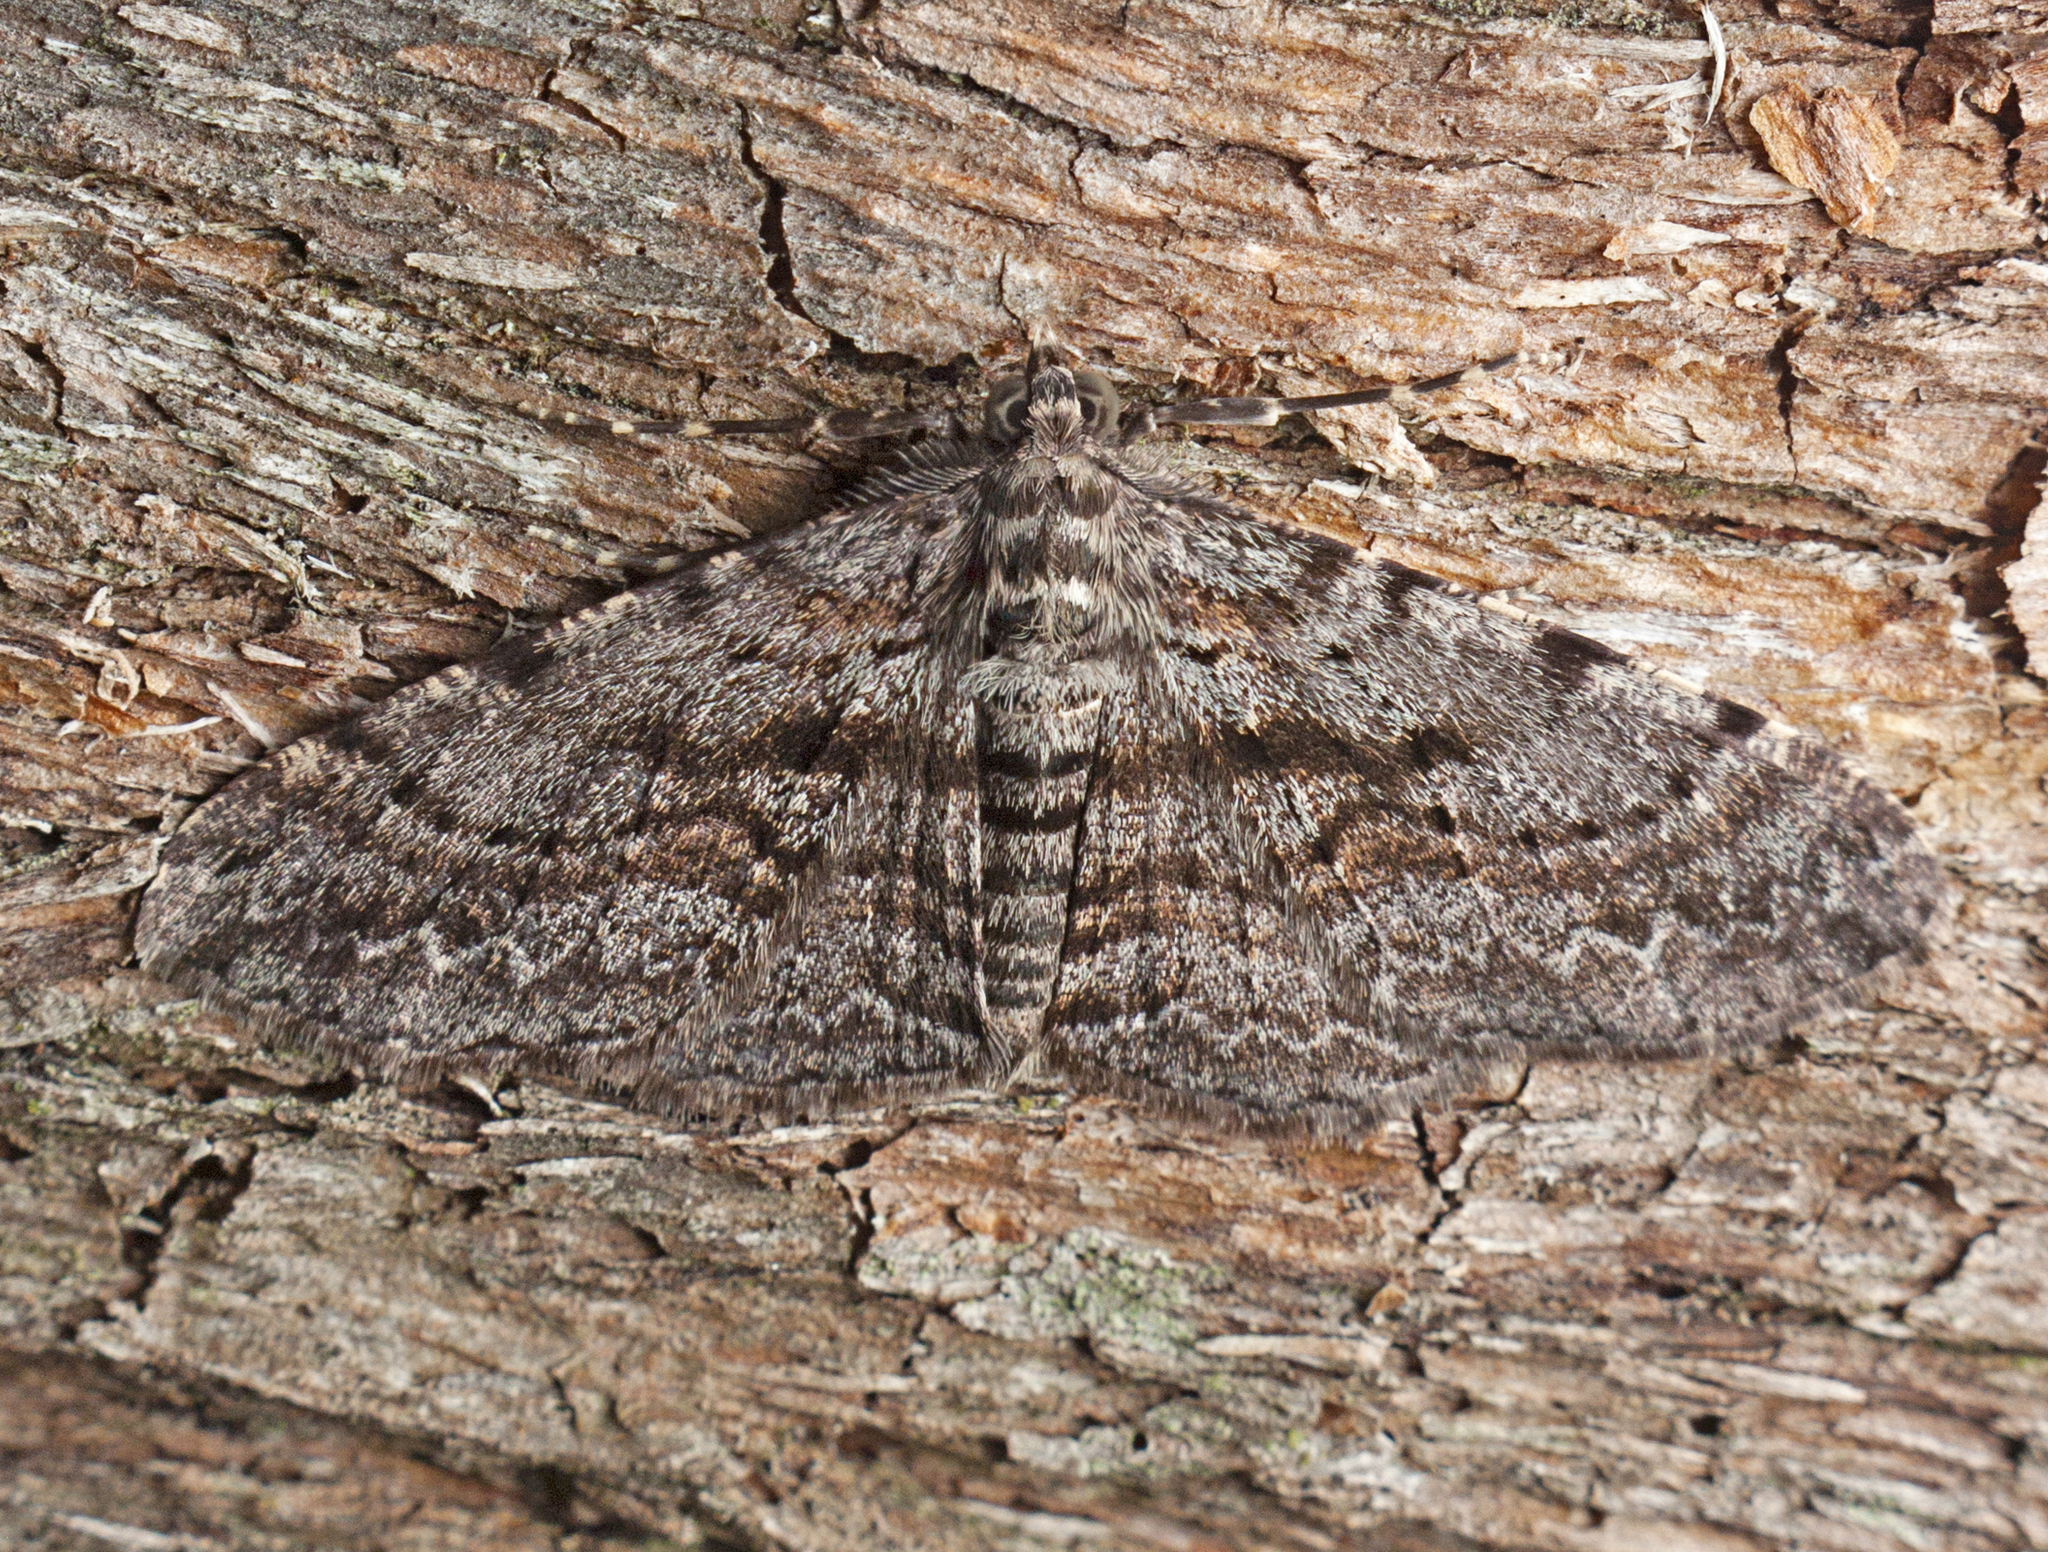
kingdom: Animalia
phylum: Arthropoda
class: Insecta
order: Lepidoptera
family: Geometridae
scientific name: Geometridae
